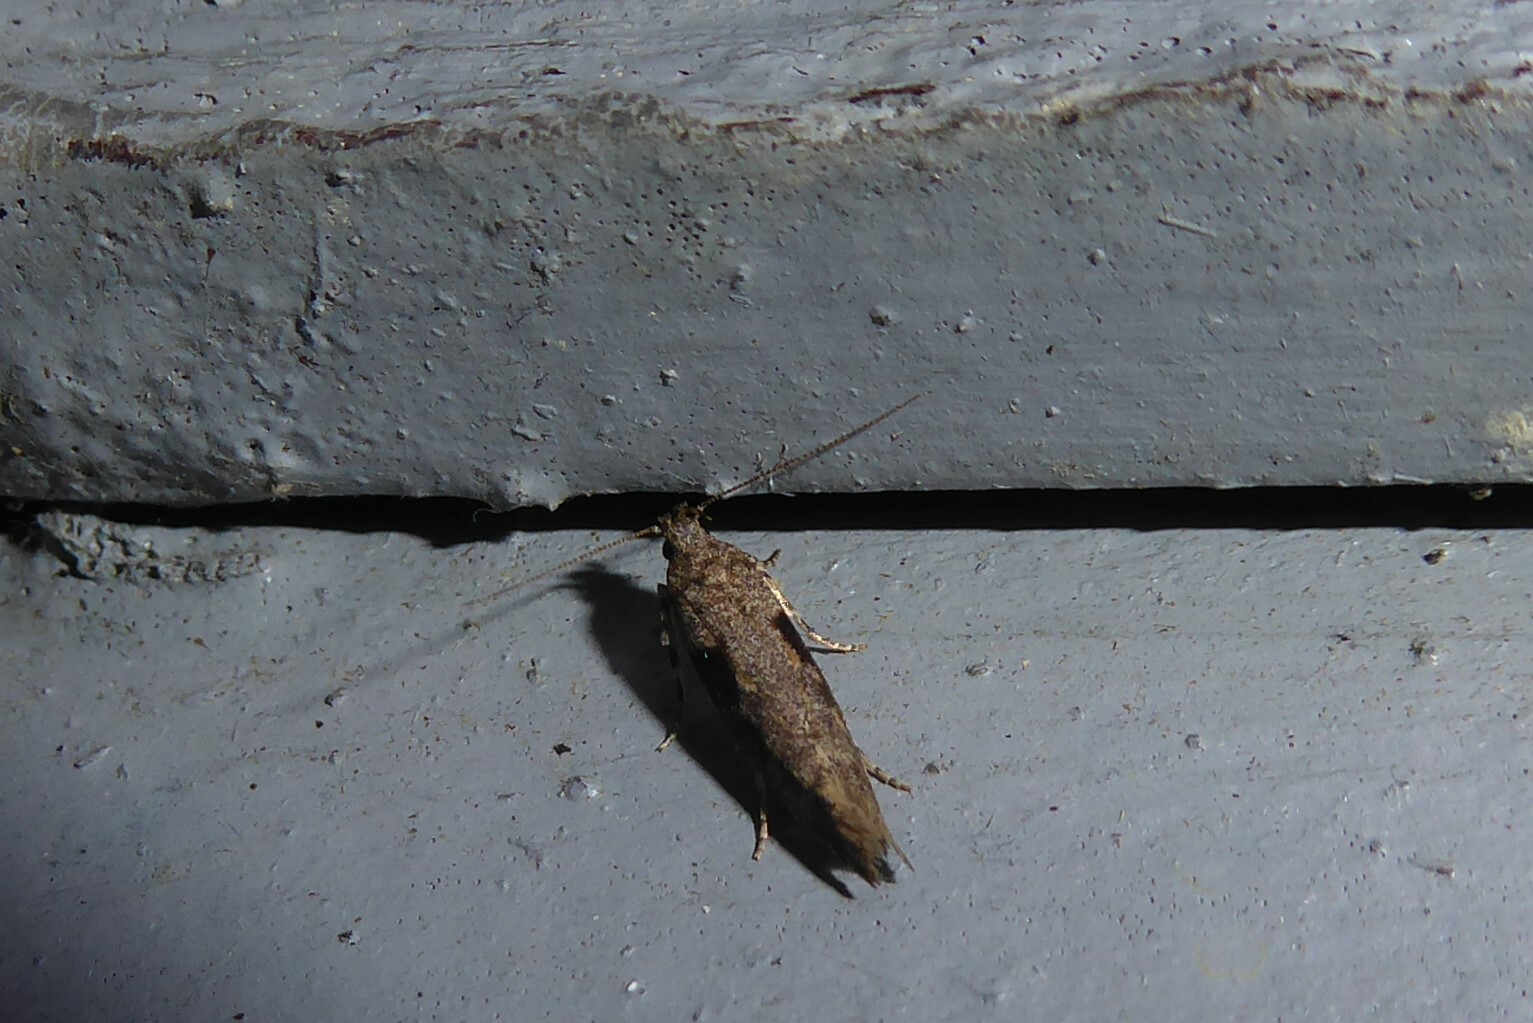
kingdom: Animalia
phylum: Arthropoda
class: Insecta
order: Lepidoptera
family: Gelechiidae
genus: Symmetrischema
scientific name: Symmetrischema tangolias
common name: Moth
